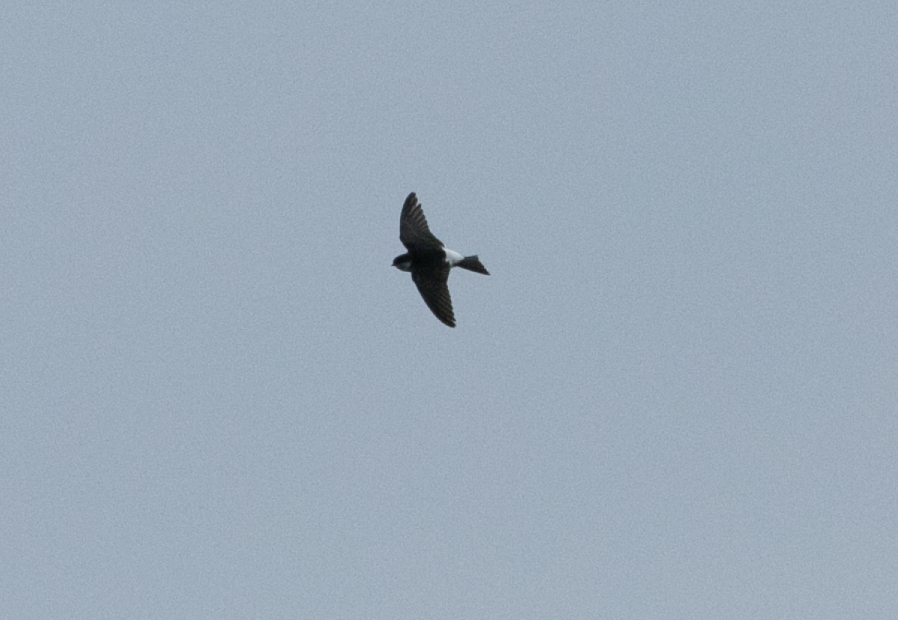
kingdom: Animalia
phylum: Chordata
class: Aves
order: Passeriformes
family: Hirundinidae
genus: Delichon
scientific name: Delichon urbicum
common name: Common house martin
